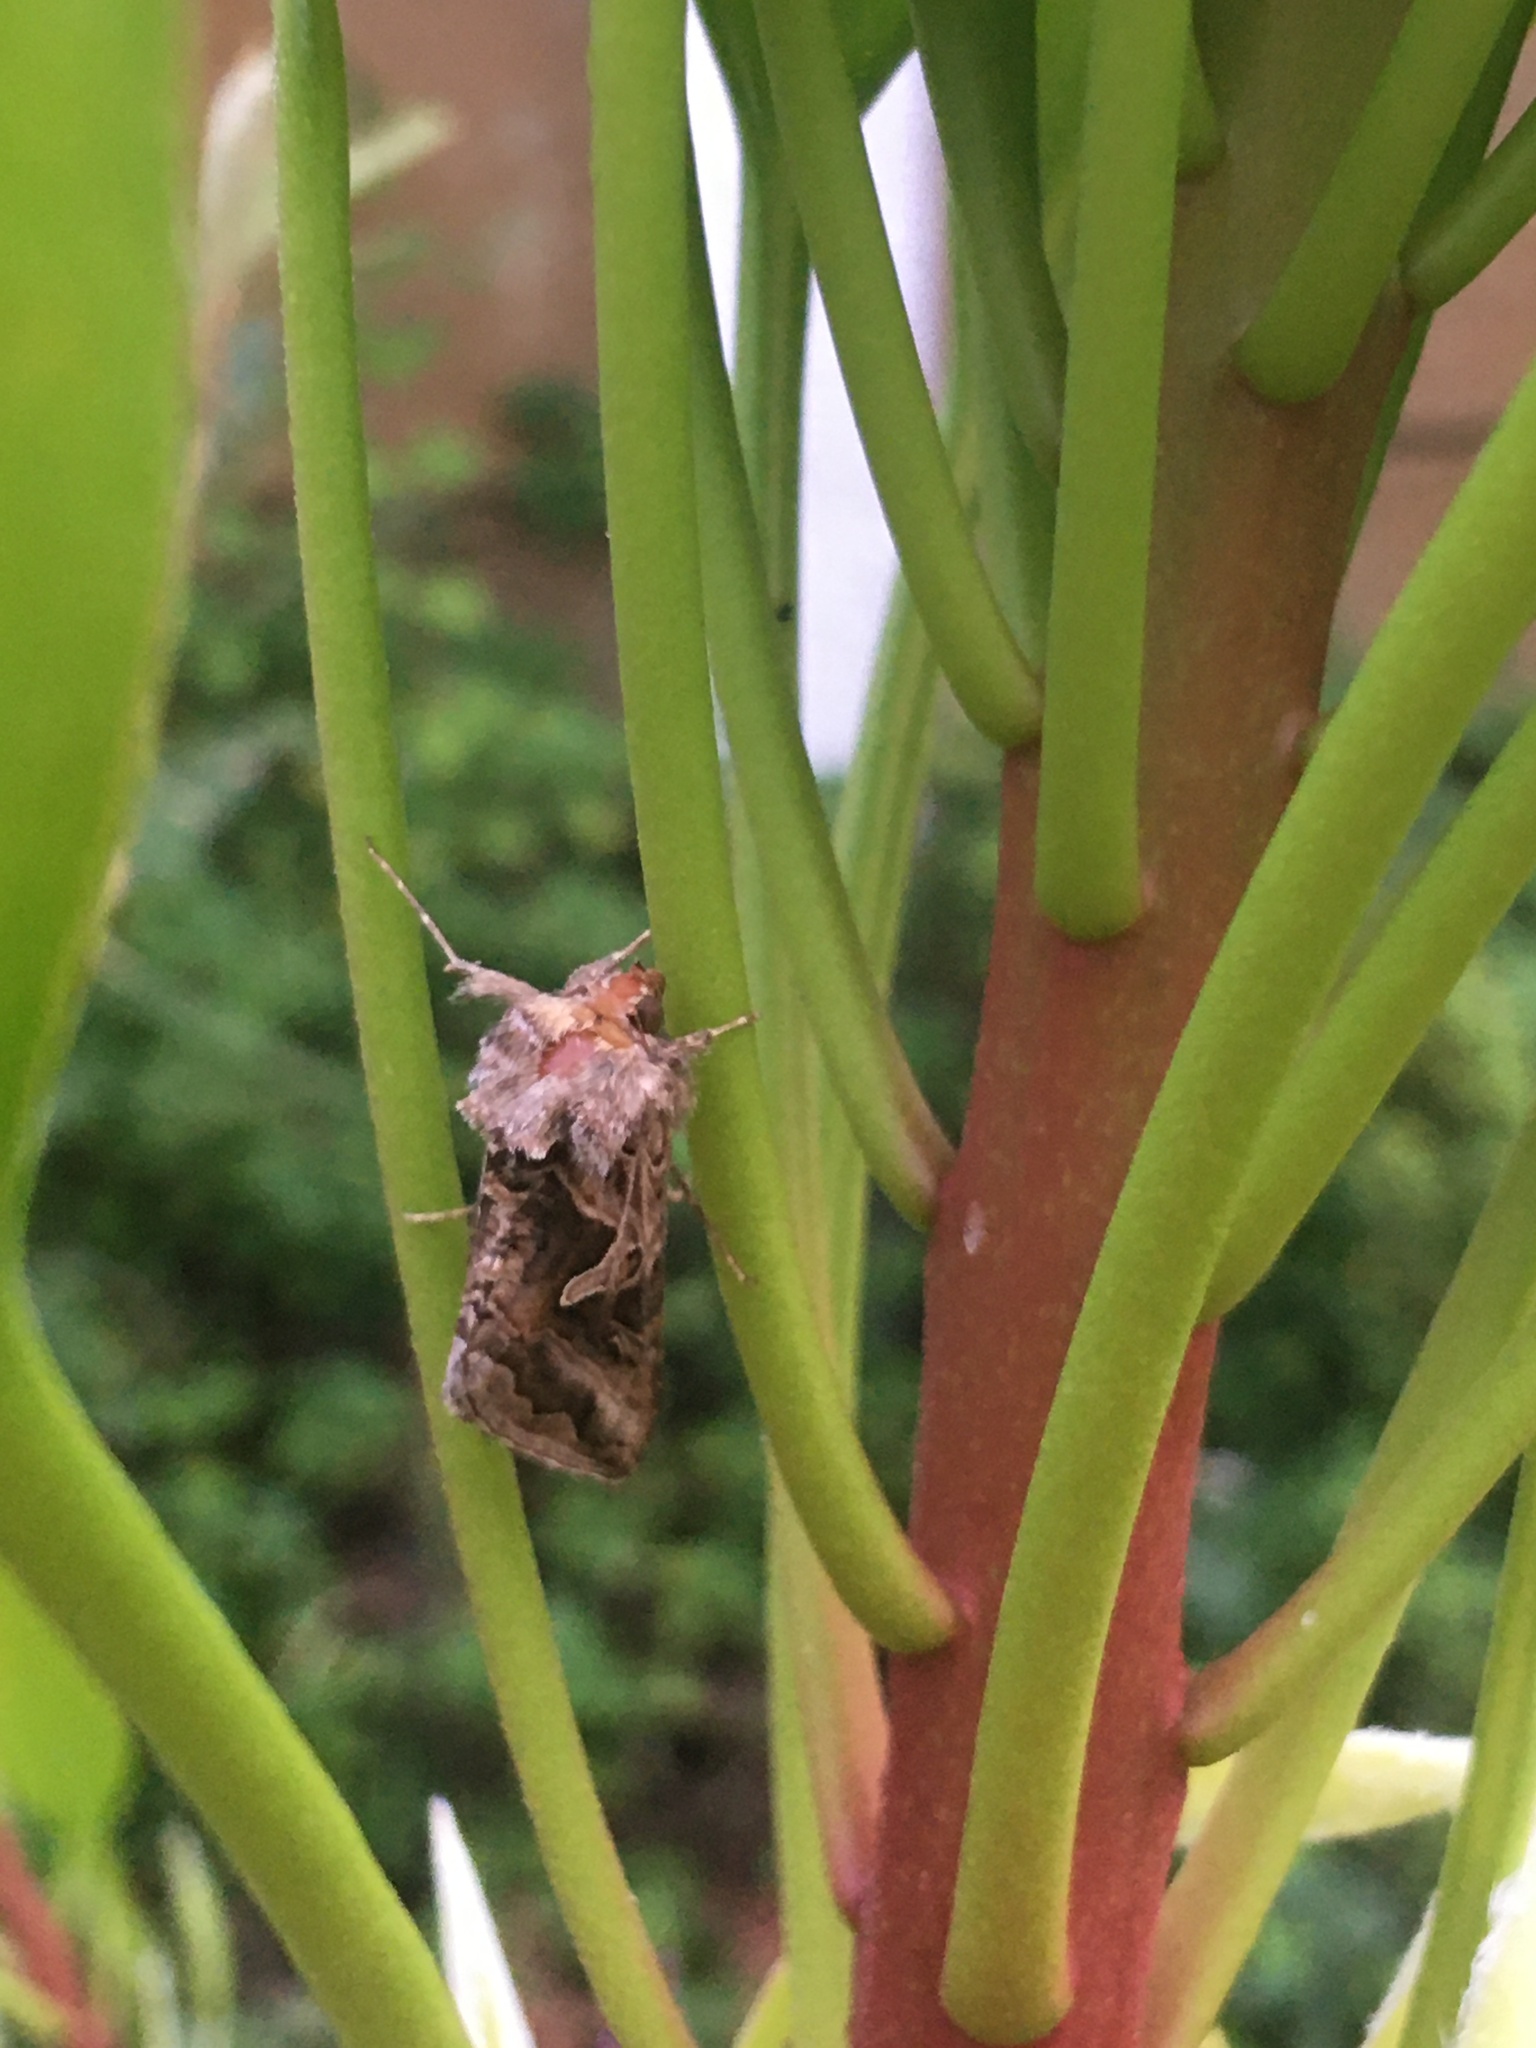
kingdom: Animalia
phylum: Arthropoda
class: Insecta
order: Lepidoptera
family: Noctuidae
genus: Cornutiplusia
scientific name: Cornutiplusia circumflexa
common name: Yorkshire y
